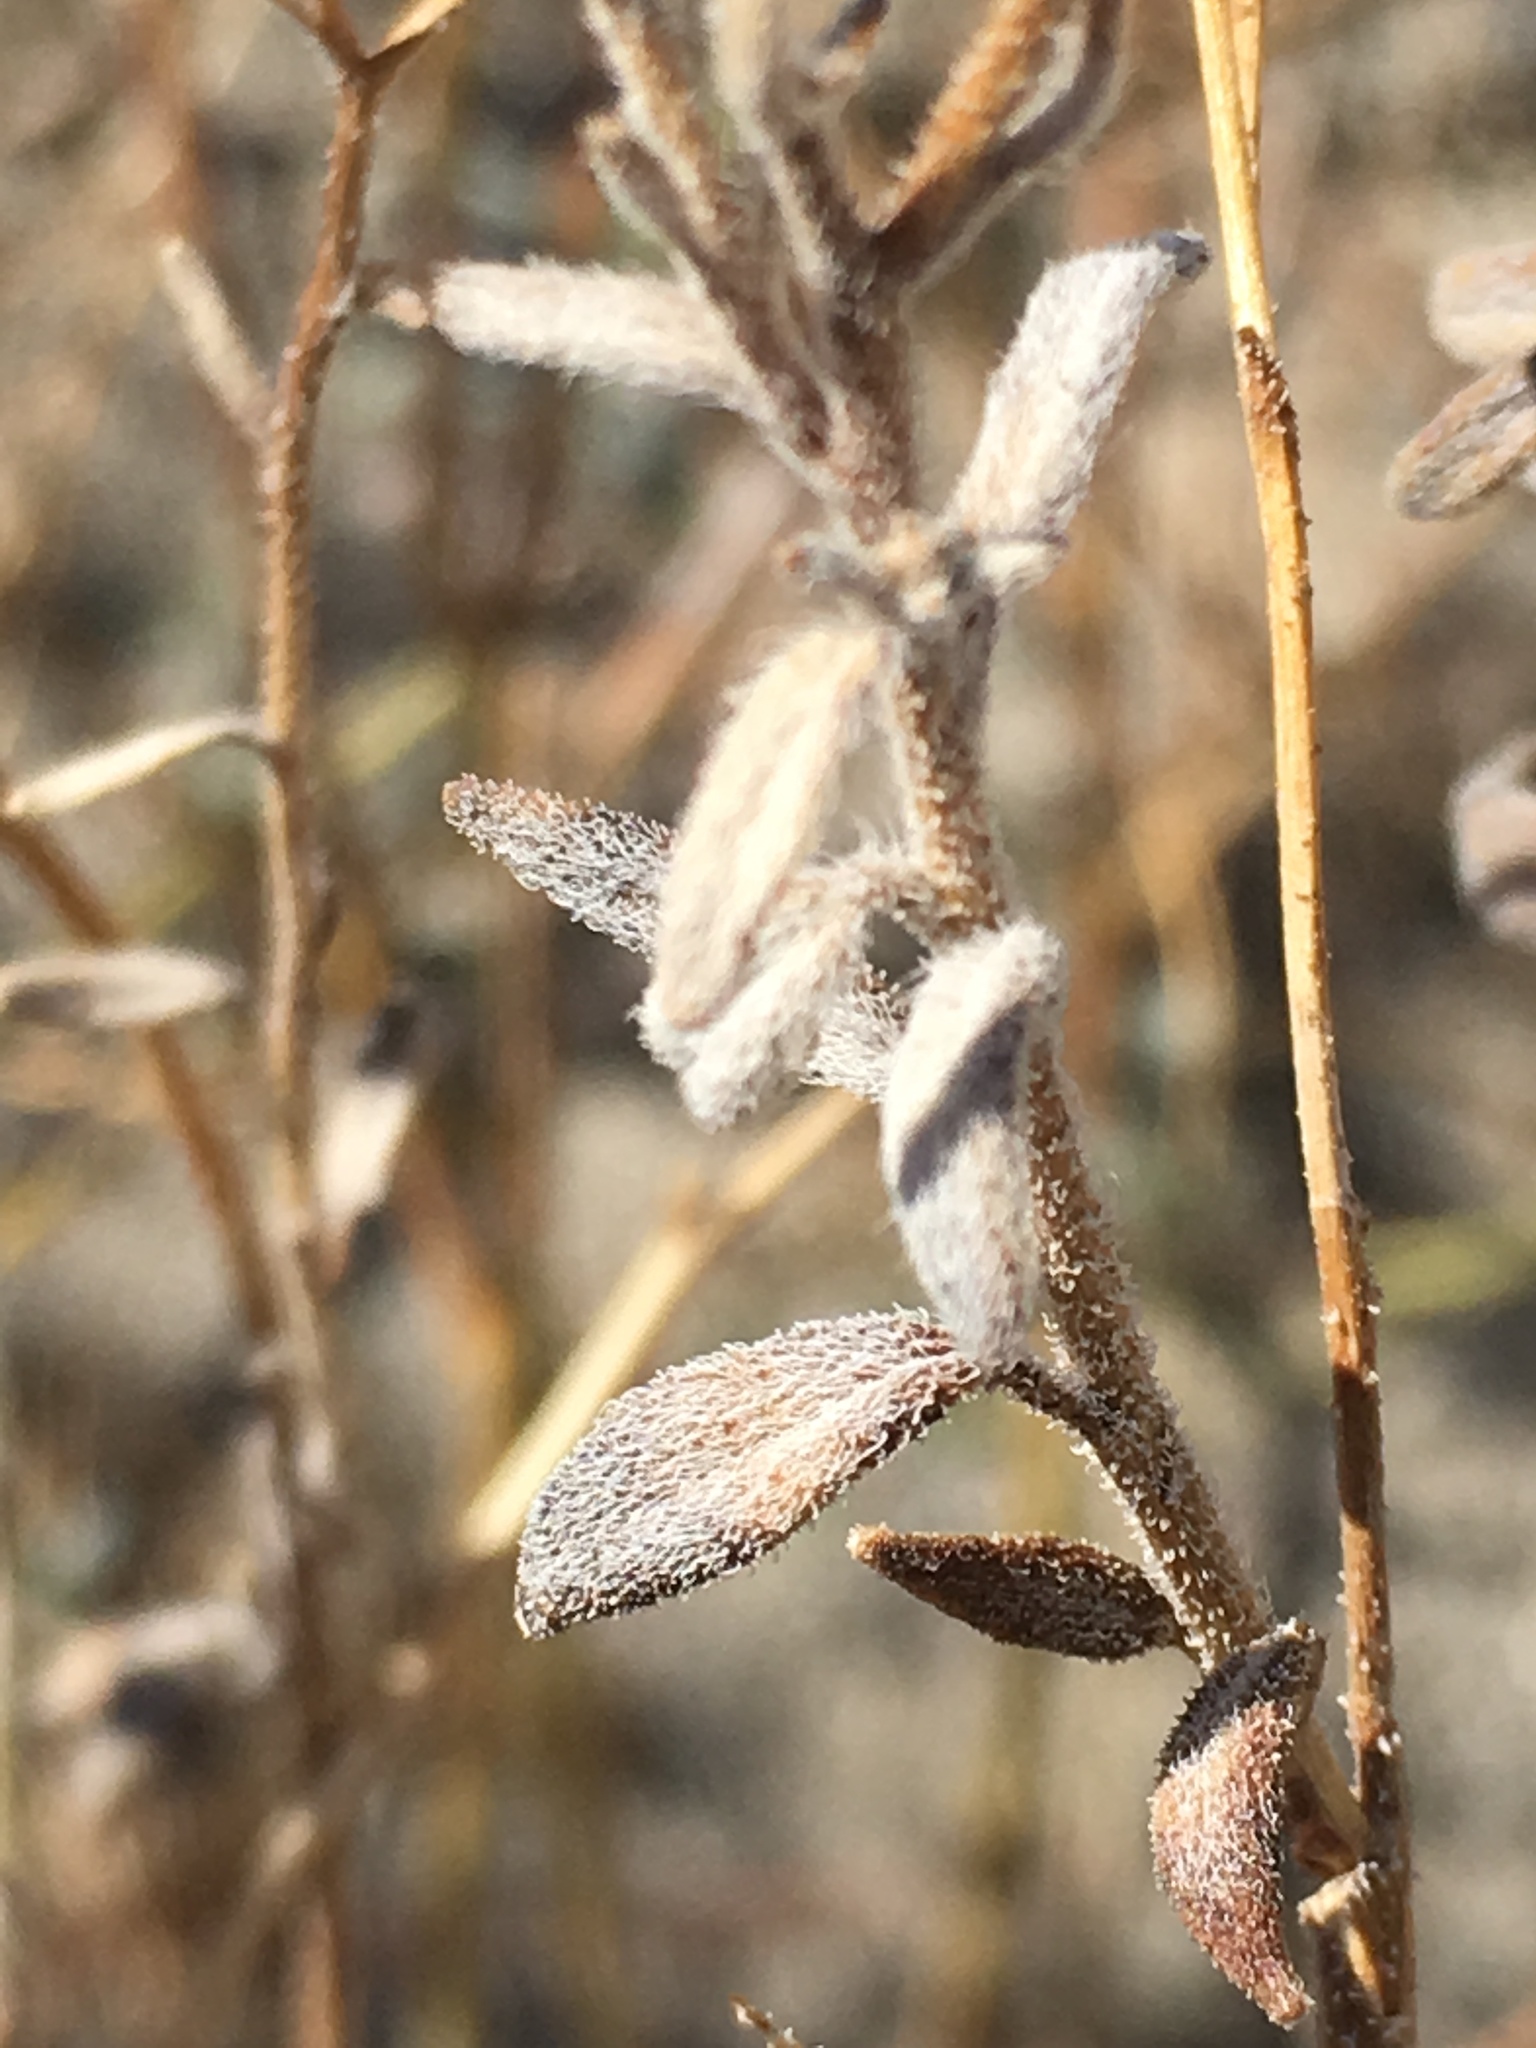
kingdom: Plantae
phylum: Tracheophyta
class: Magnoliopsida
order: Asterales
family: Asteraceae
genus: Palafoxia
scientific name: Palafoxia arida
